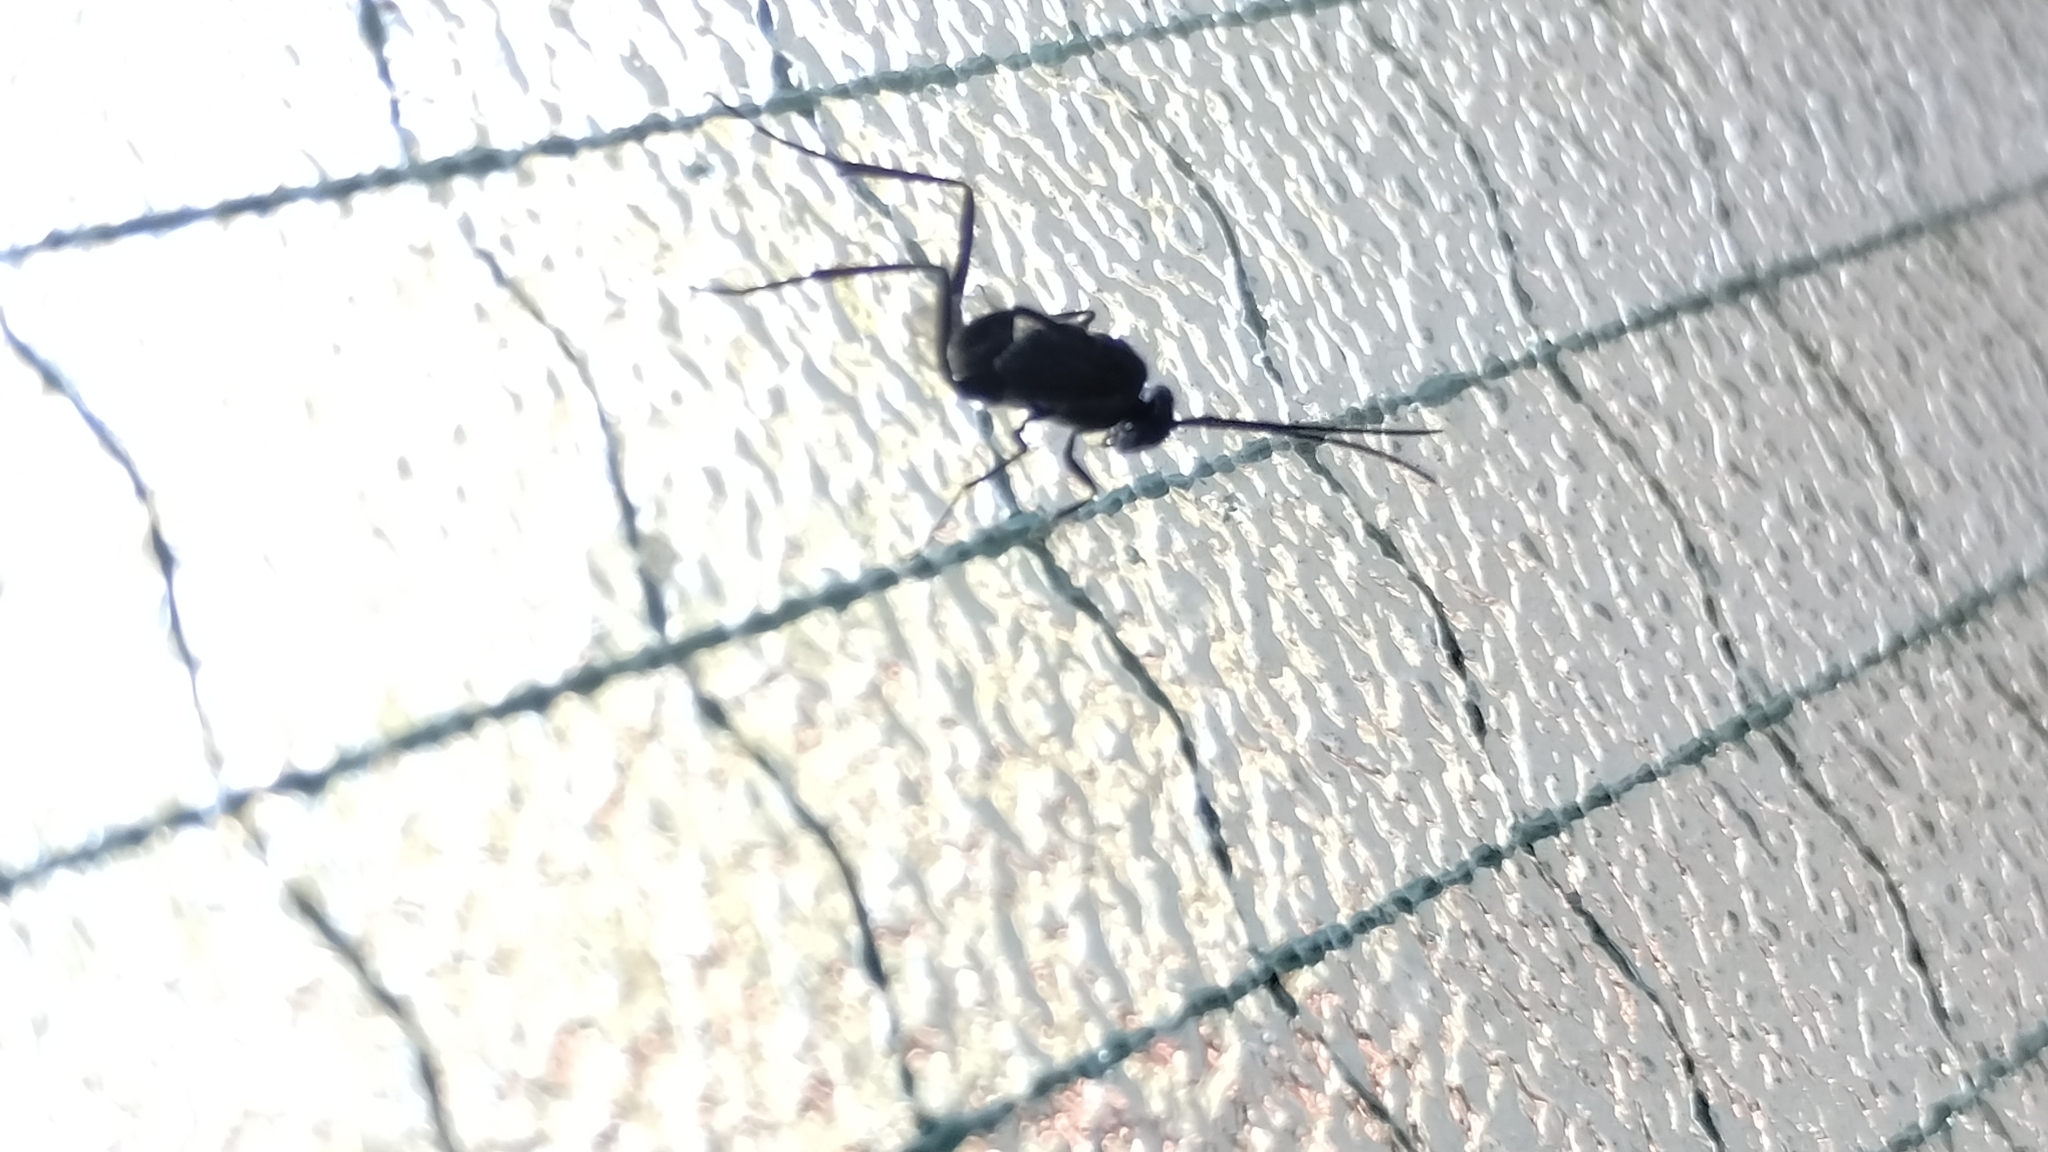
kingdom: Animalia
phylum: Arthropoda
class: Insecta
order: Hymenoptera
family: Evaniidae
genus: Evania
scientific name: Evania appendigaster
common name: Ensign wasp
